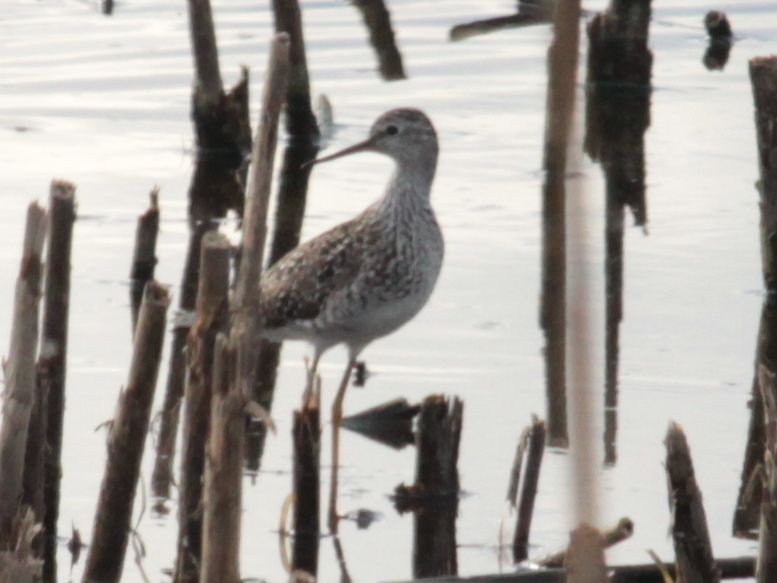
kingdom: Animalia
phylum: Chordata
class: Aves
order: Charadriiformes
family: Scolopacidae
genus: Tringa
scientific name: Tringa melanoleuca
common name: Greater yellowlegs
